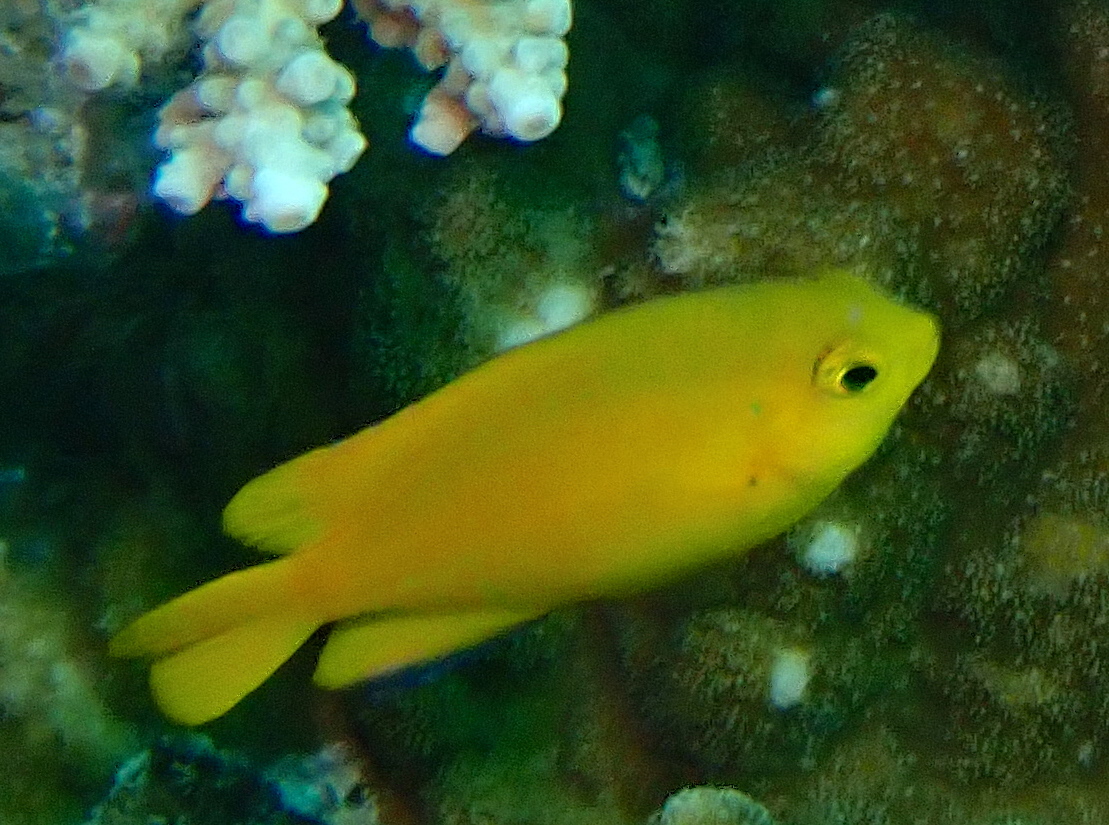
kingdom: Animalia
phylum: Chordata
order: Perciformes
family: Pomacentridae
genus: Pomacentrus
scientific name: Pomacentrus moluccensis
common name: Lemon damsel
